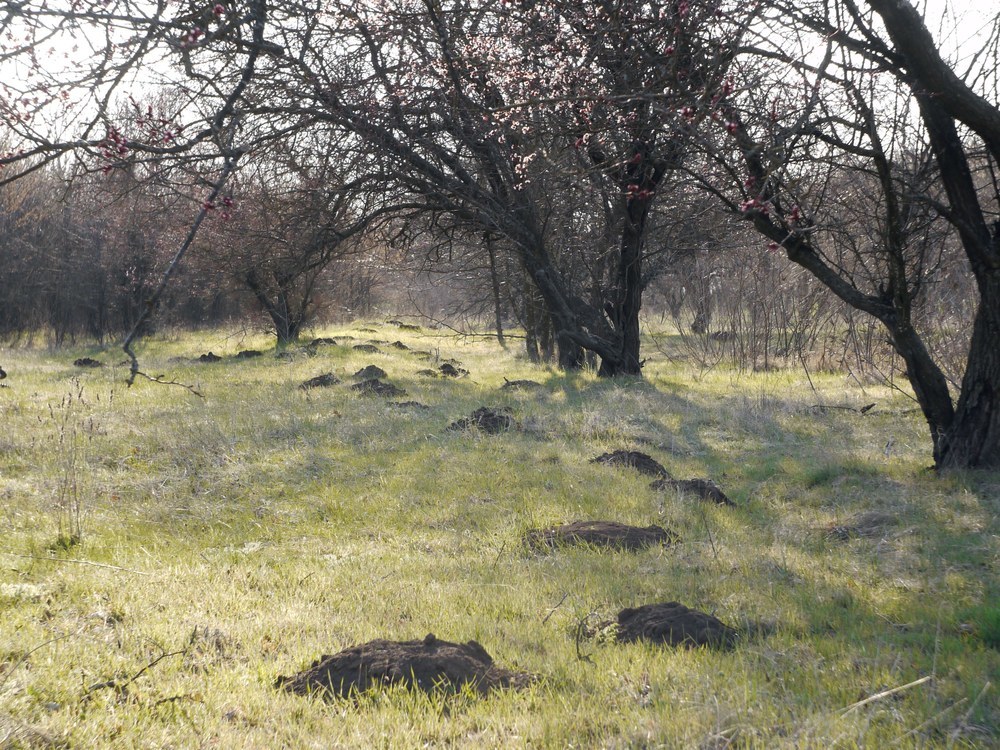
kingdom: Animalia
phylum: Chordata
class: Mammalia
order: Rodentia
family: Spalacidae
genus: Spalax
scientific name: Spalax zemni
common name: Podolsk blind mole rat
